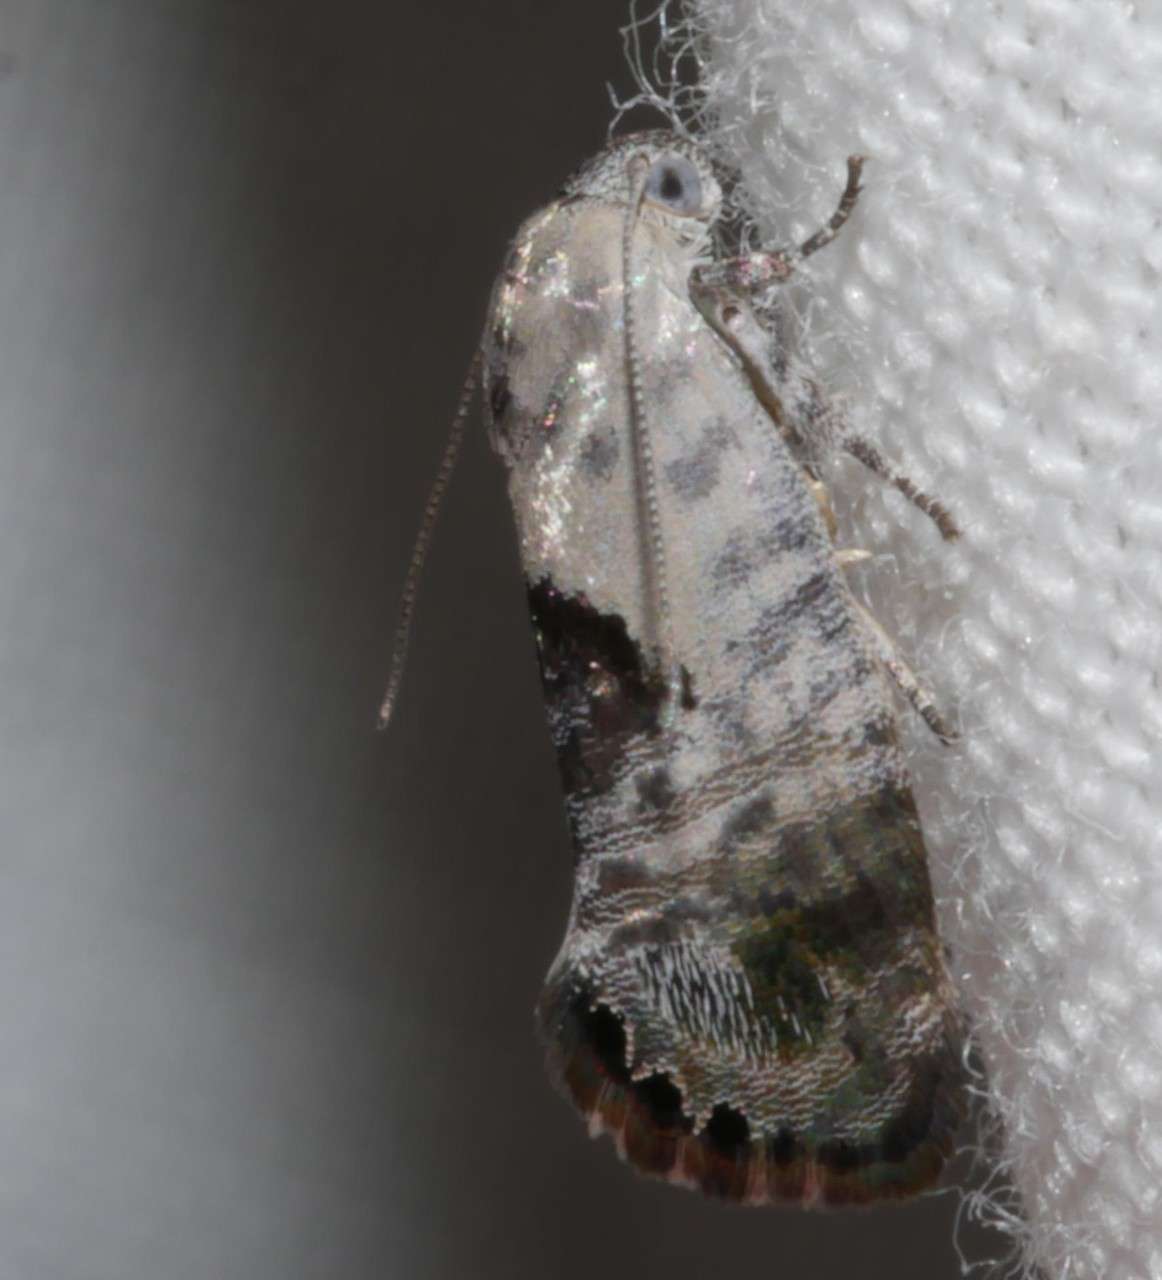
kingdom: Animalia
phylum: Arthropoda
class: Insecta
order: Lepidoptera
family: Depressariidae
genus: Eupselia
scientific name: Eupselia carpocapsella
